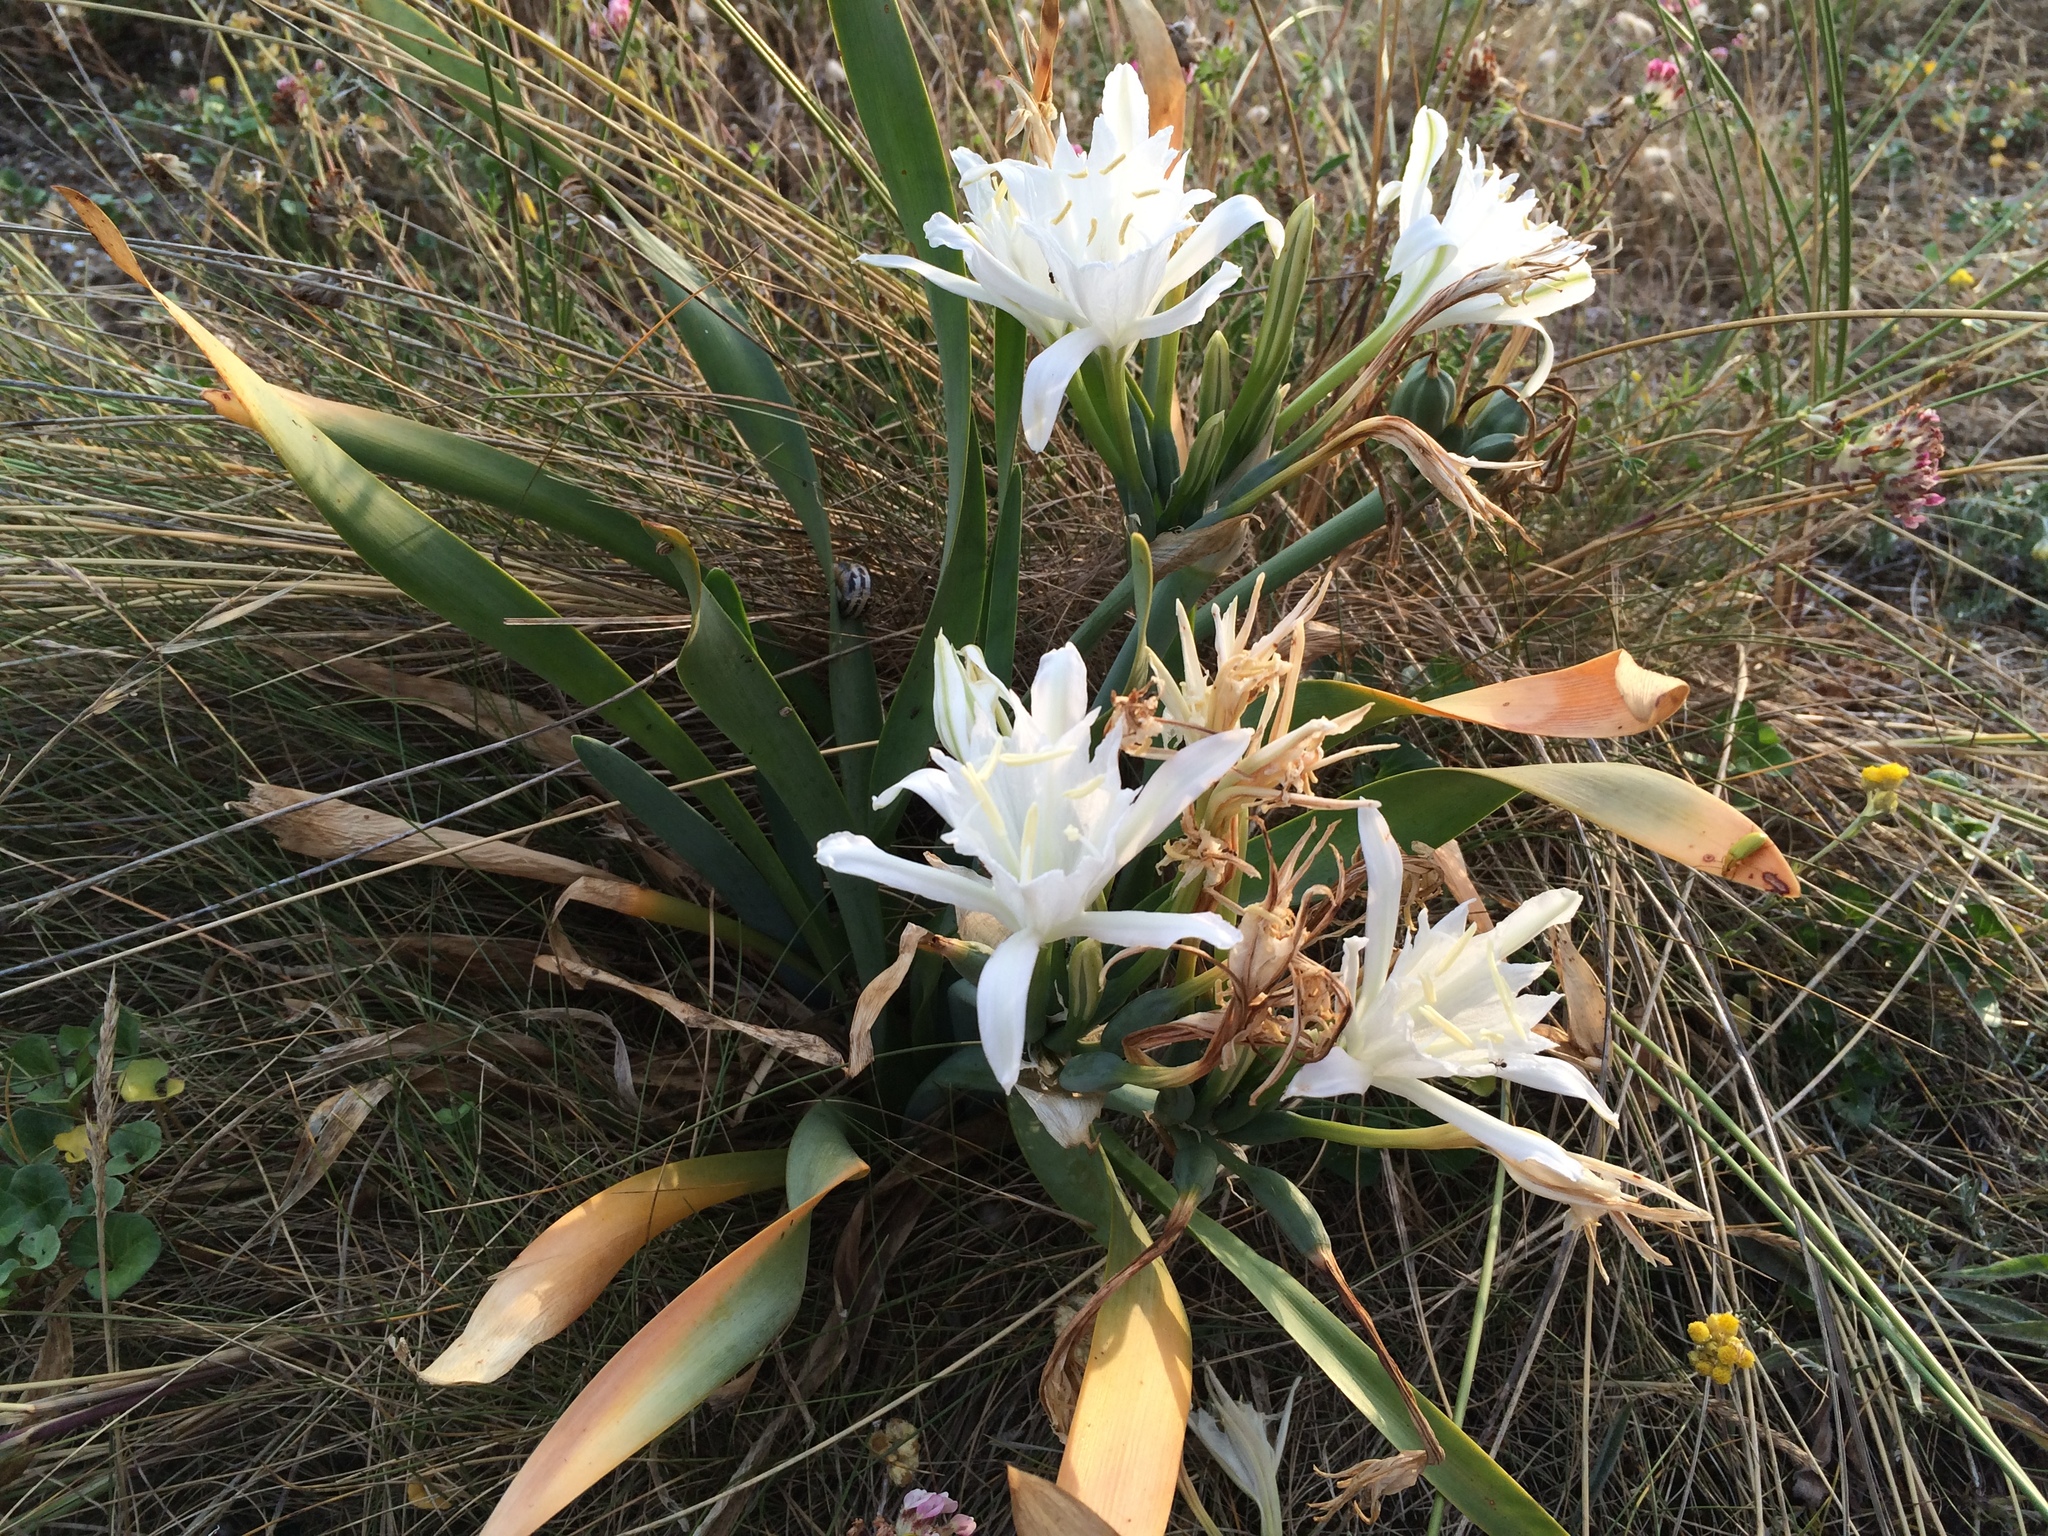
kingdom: Plantae
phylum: Tracheophyta
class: Liliopsida
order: Asparagales
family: Amaryllidaceae
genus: Pancratium
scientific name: Pancratium maritimum
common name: Sea-daffodil
